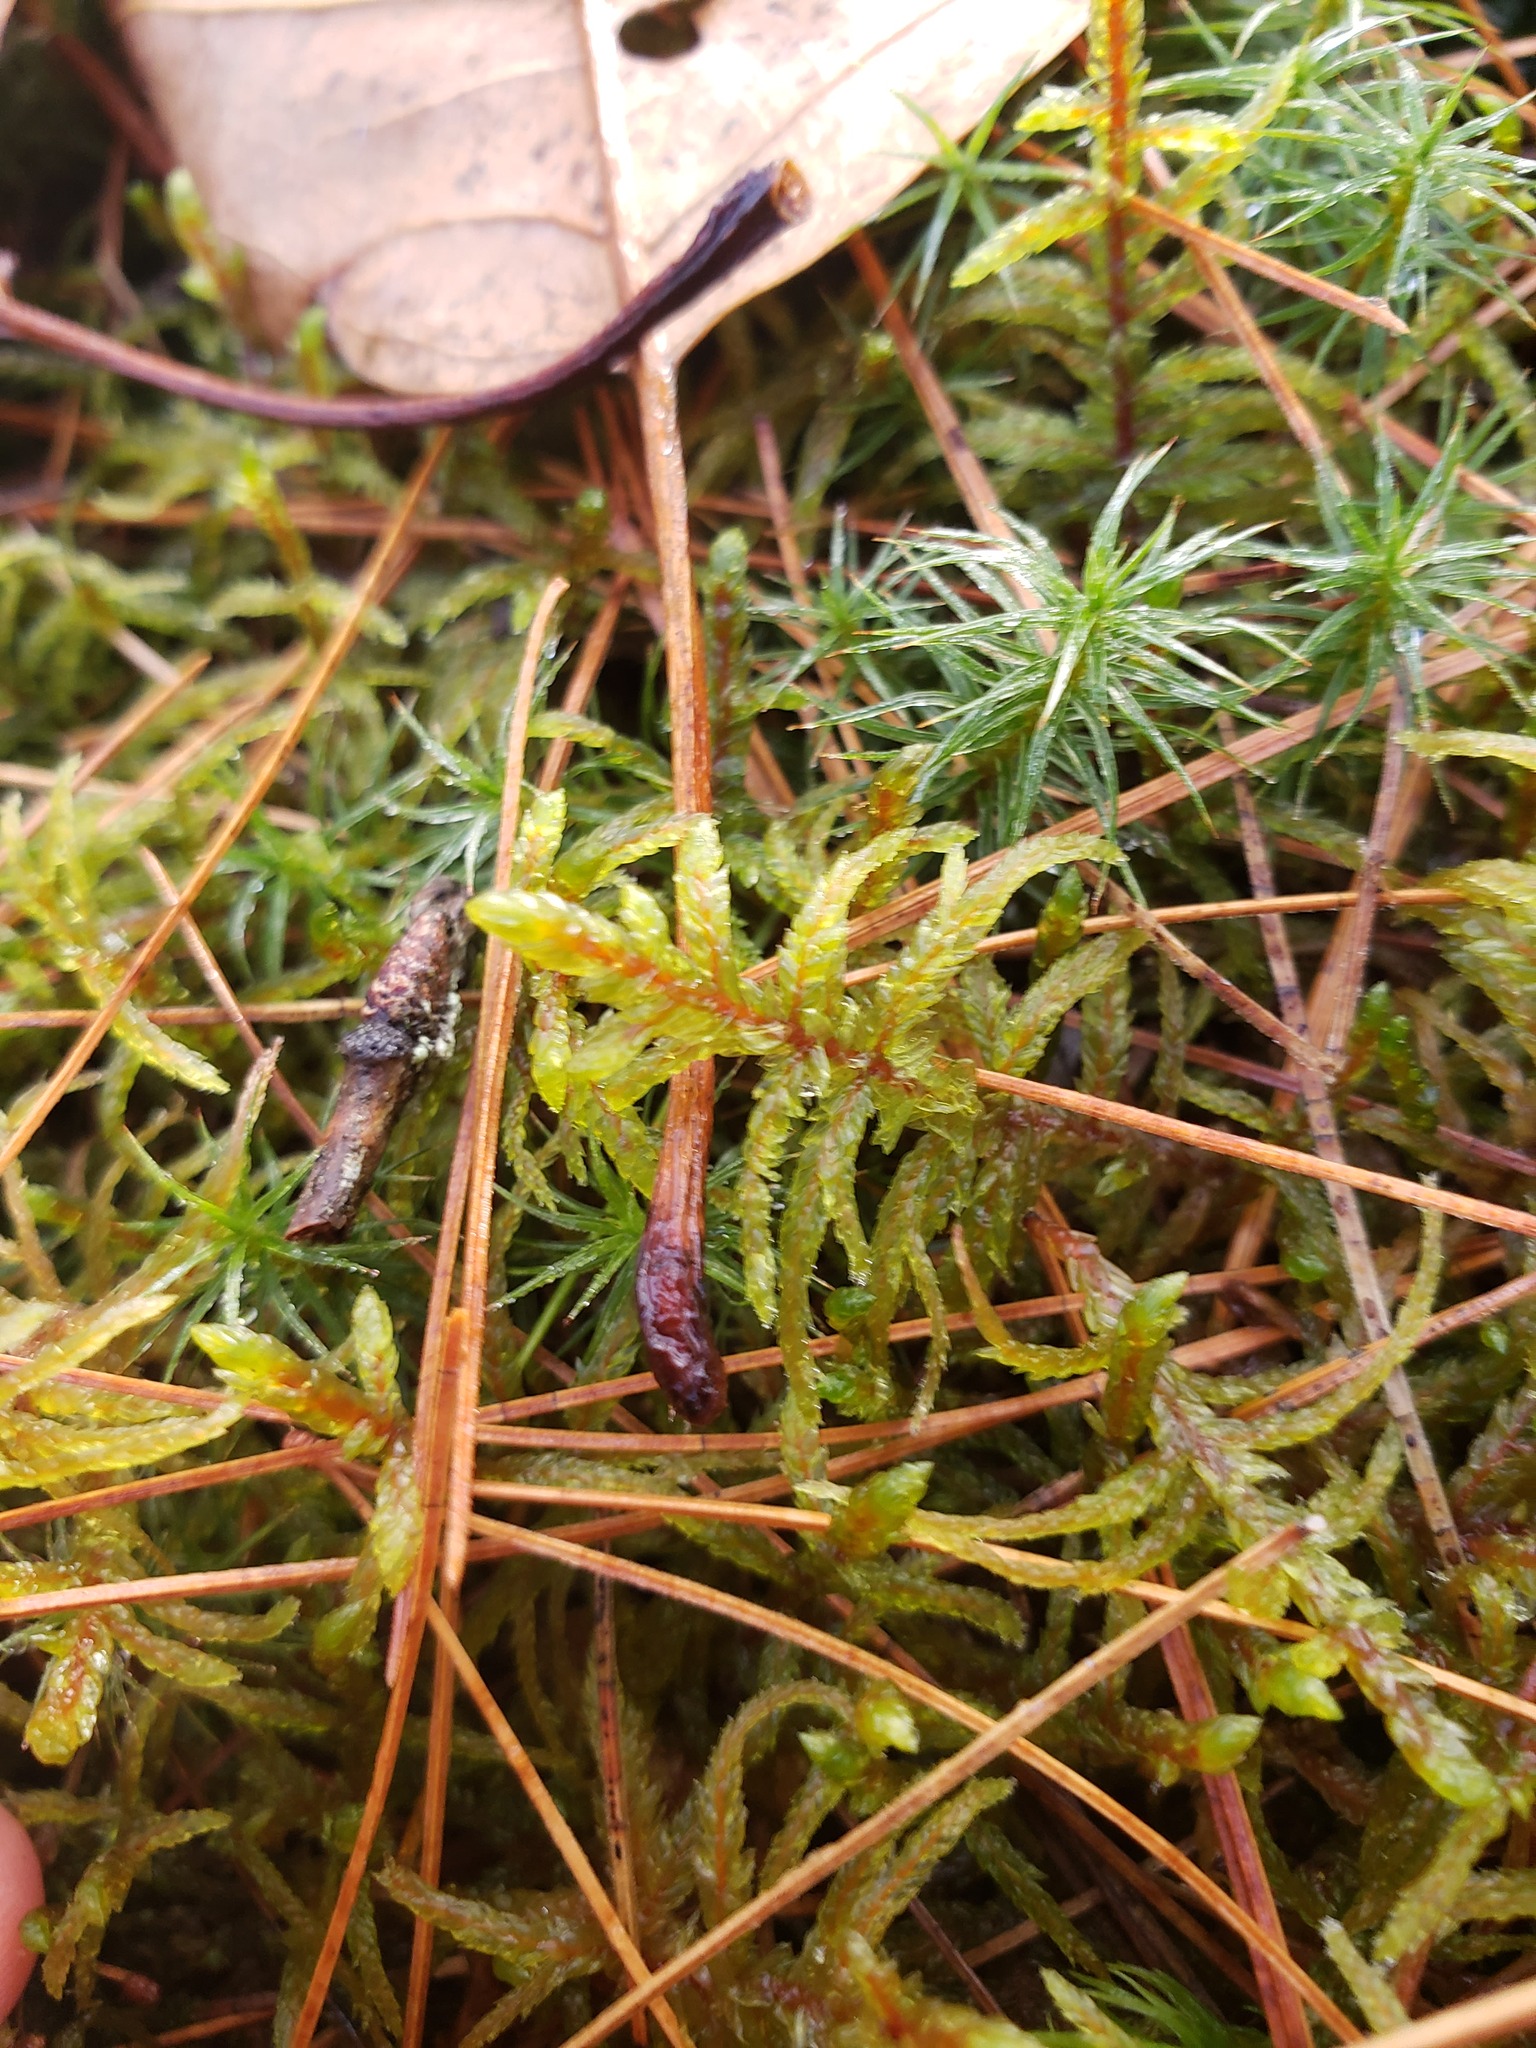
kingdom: Plantae
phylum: Bryophyta
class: Bryopsida
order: Hypnales
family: Hylocomiaceae
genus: Pleurozium
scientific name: Pleurozium schreberi
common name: Red-stemmed feather moss
